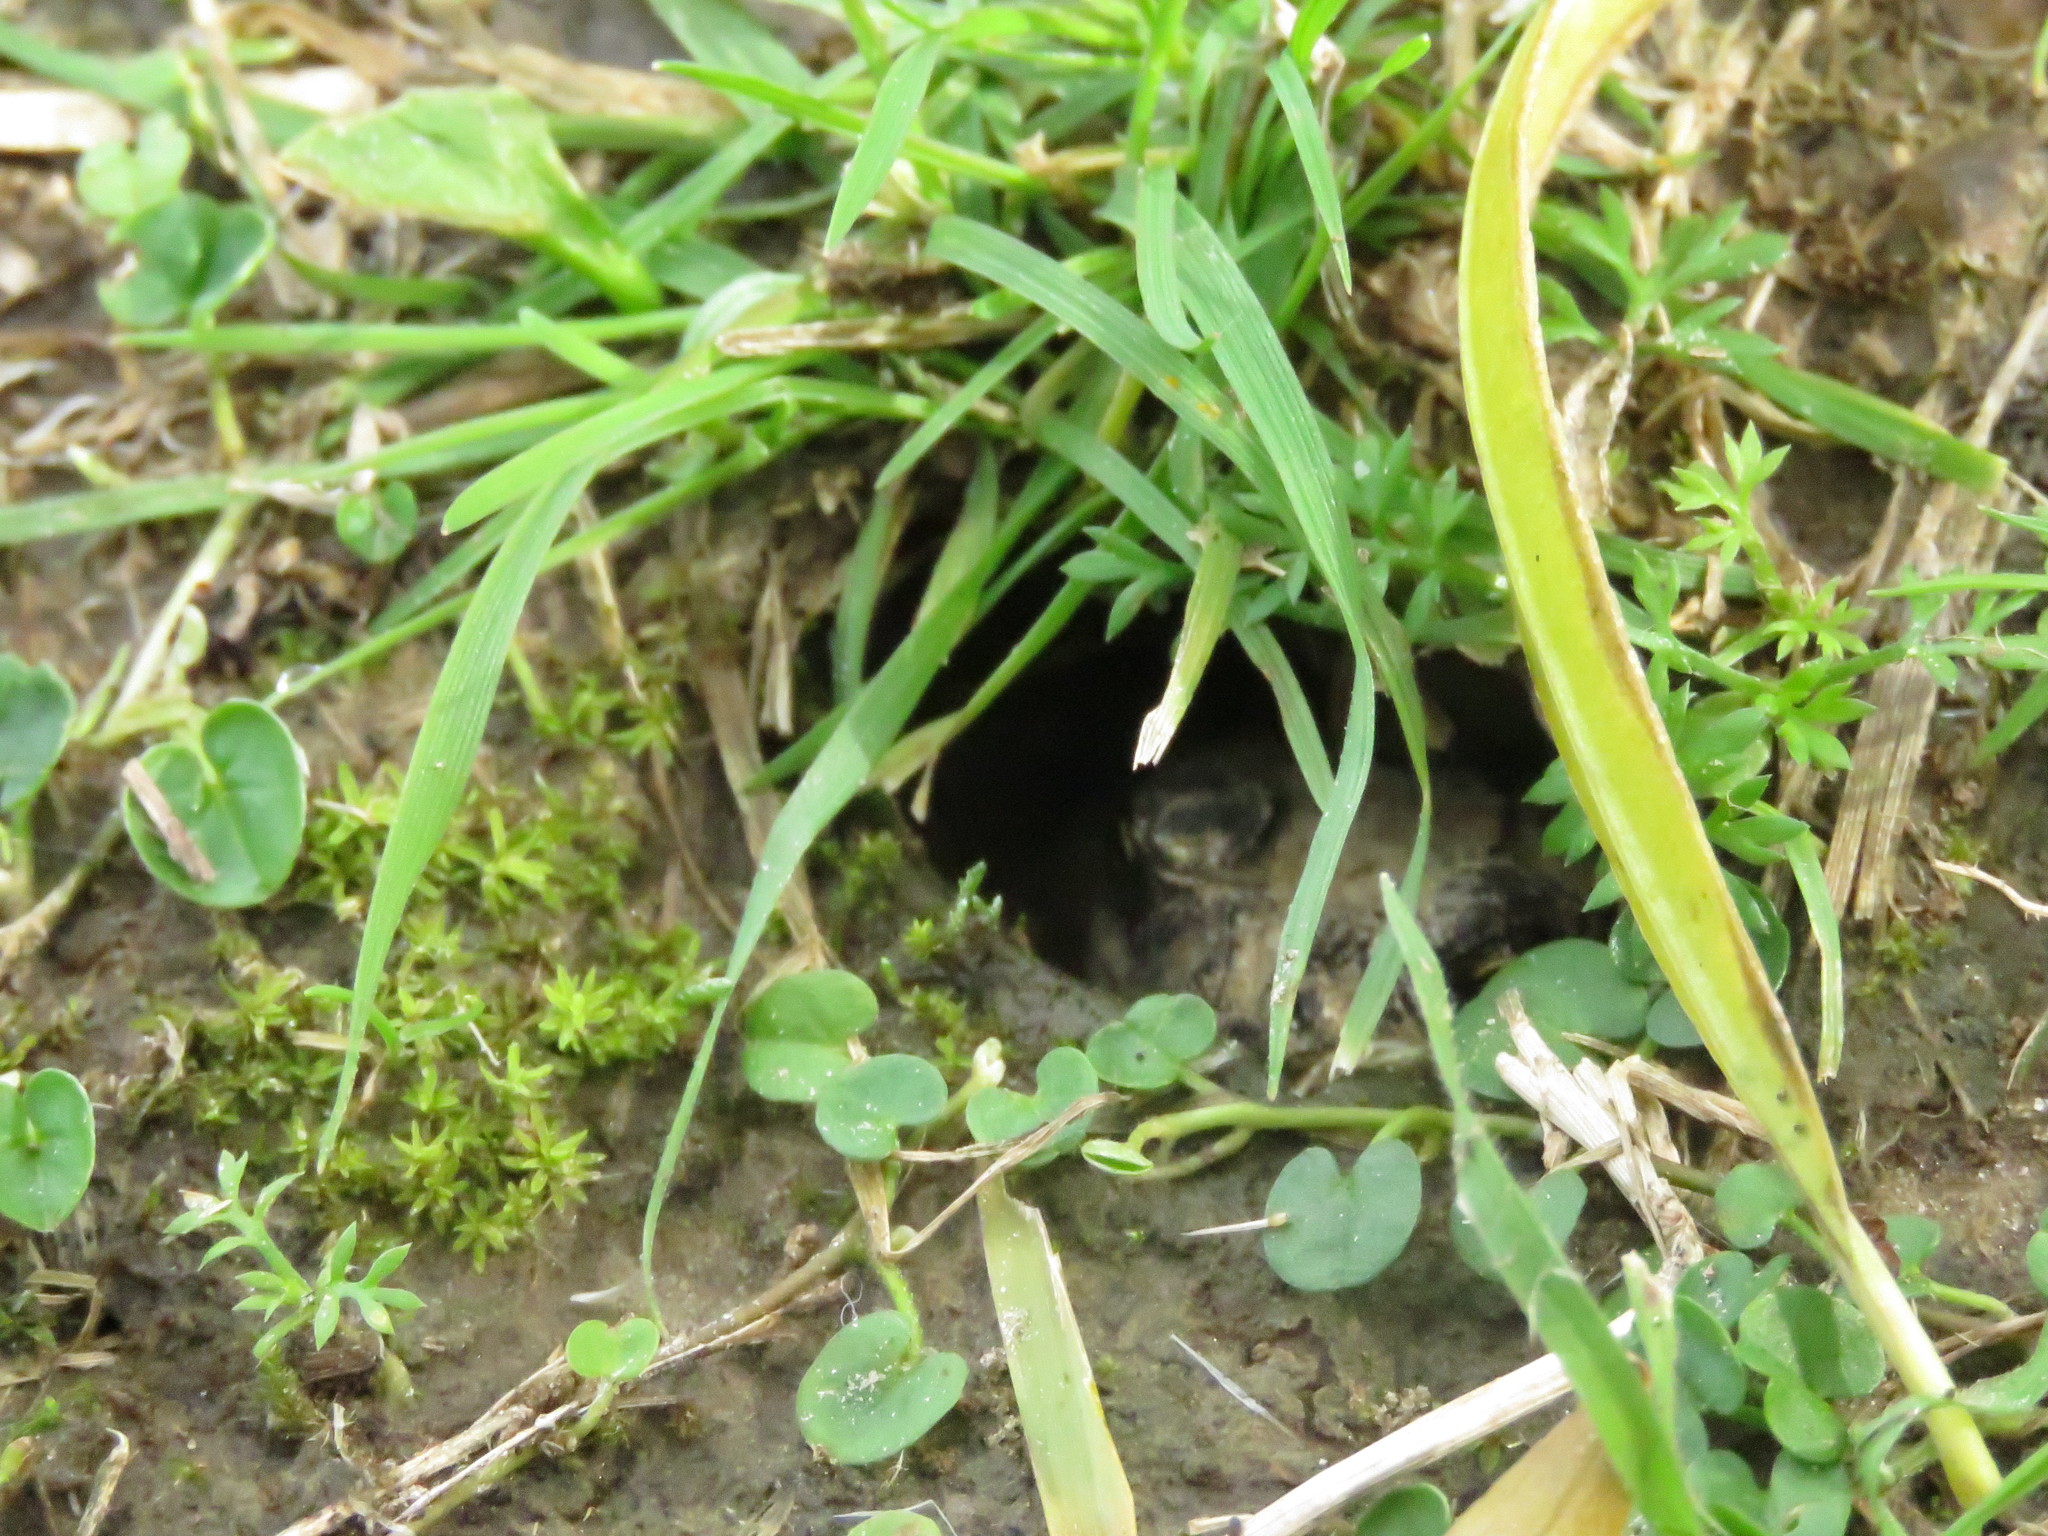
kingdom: Animalia
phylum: Chordata
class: Amphibia
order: Anura
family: Bufonidae
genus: Rhinella
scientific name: Rhinella dorbignyi
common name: D´orbigny’s toad
